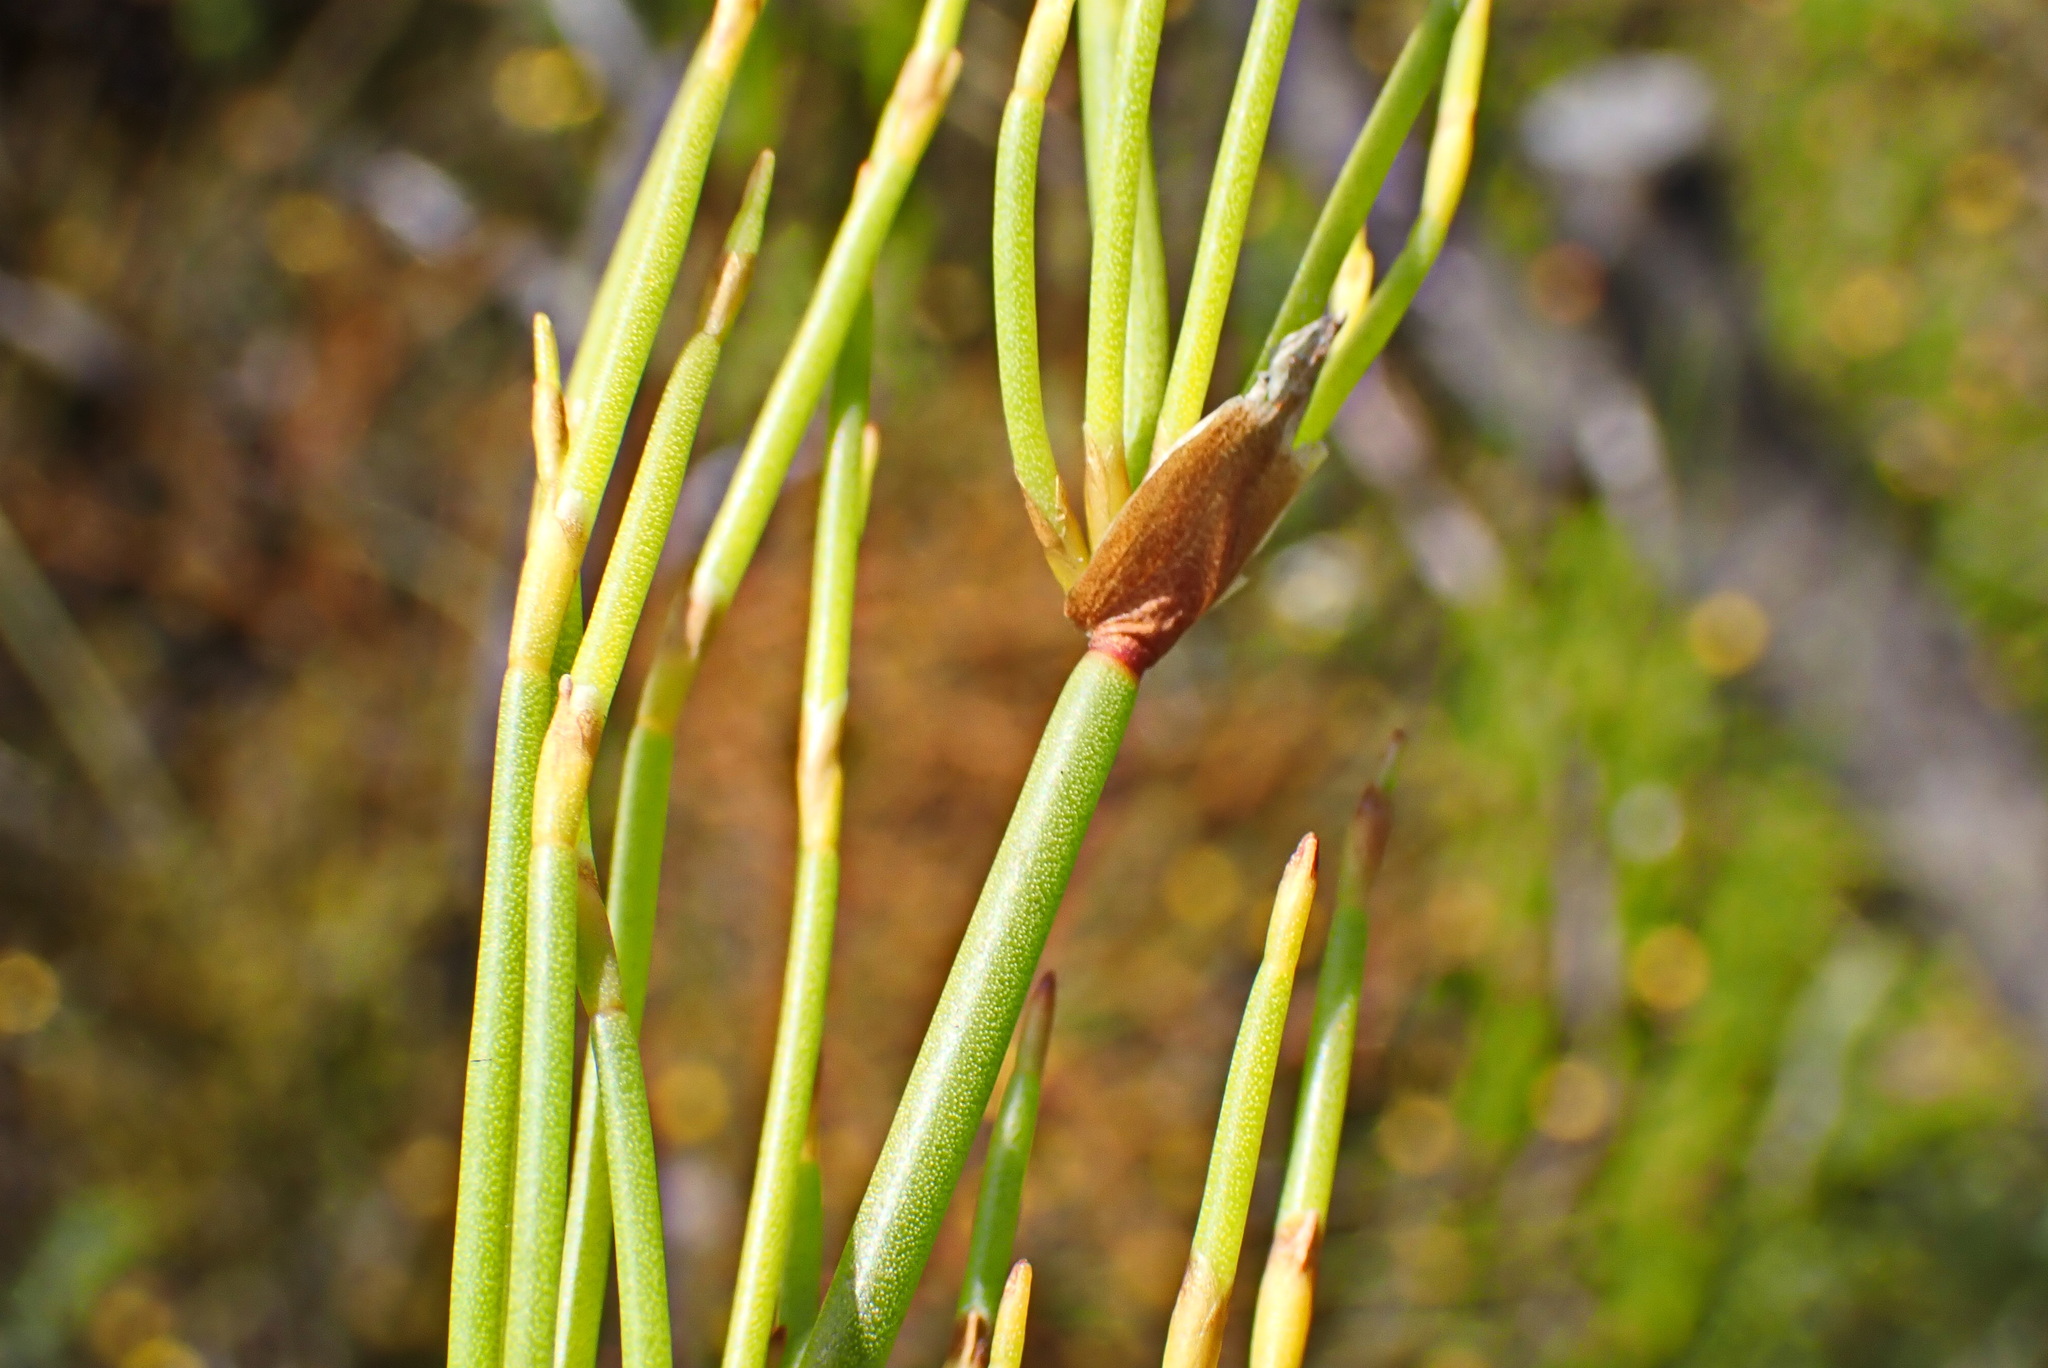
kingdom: Plantae
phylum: Tracheophyta
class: Liliopsida
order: Poales
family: Restionaceae
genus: Elegia
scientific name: Elegia capensis
